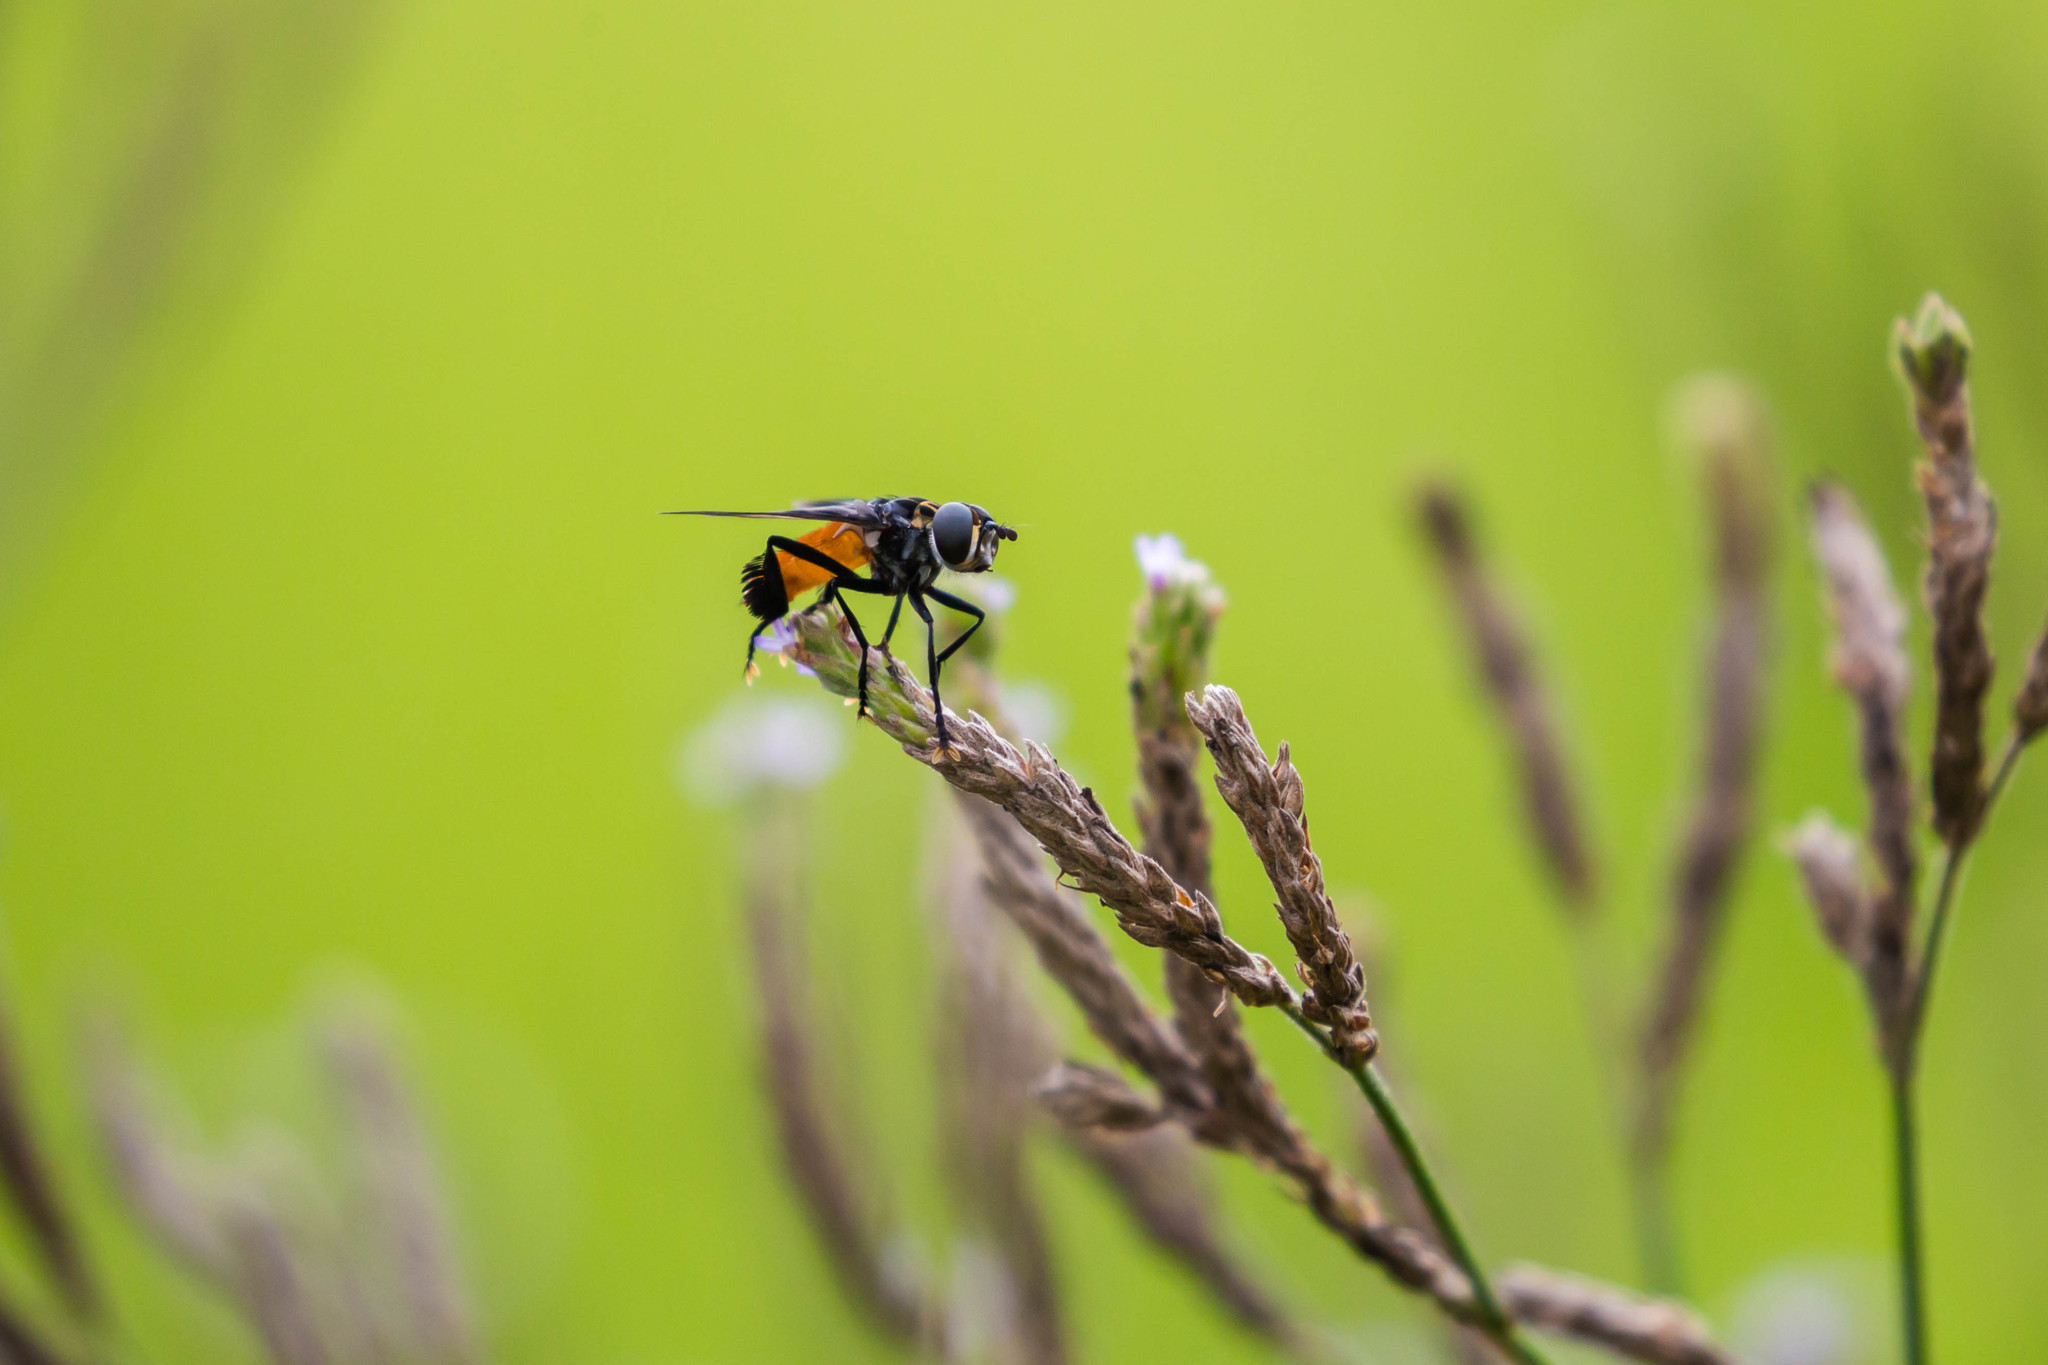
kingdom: Animalia
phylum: Arthropoda
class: Insecta
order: Diptera
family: Tachinidae
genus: Trichopoda
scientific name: Trichopoda pennipes
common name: Tachinid fly
